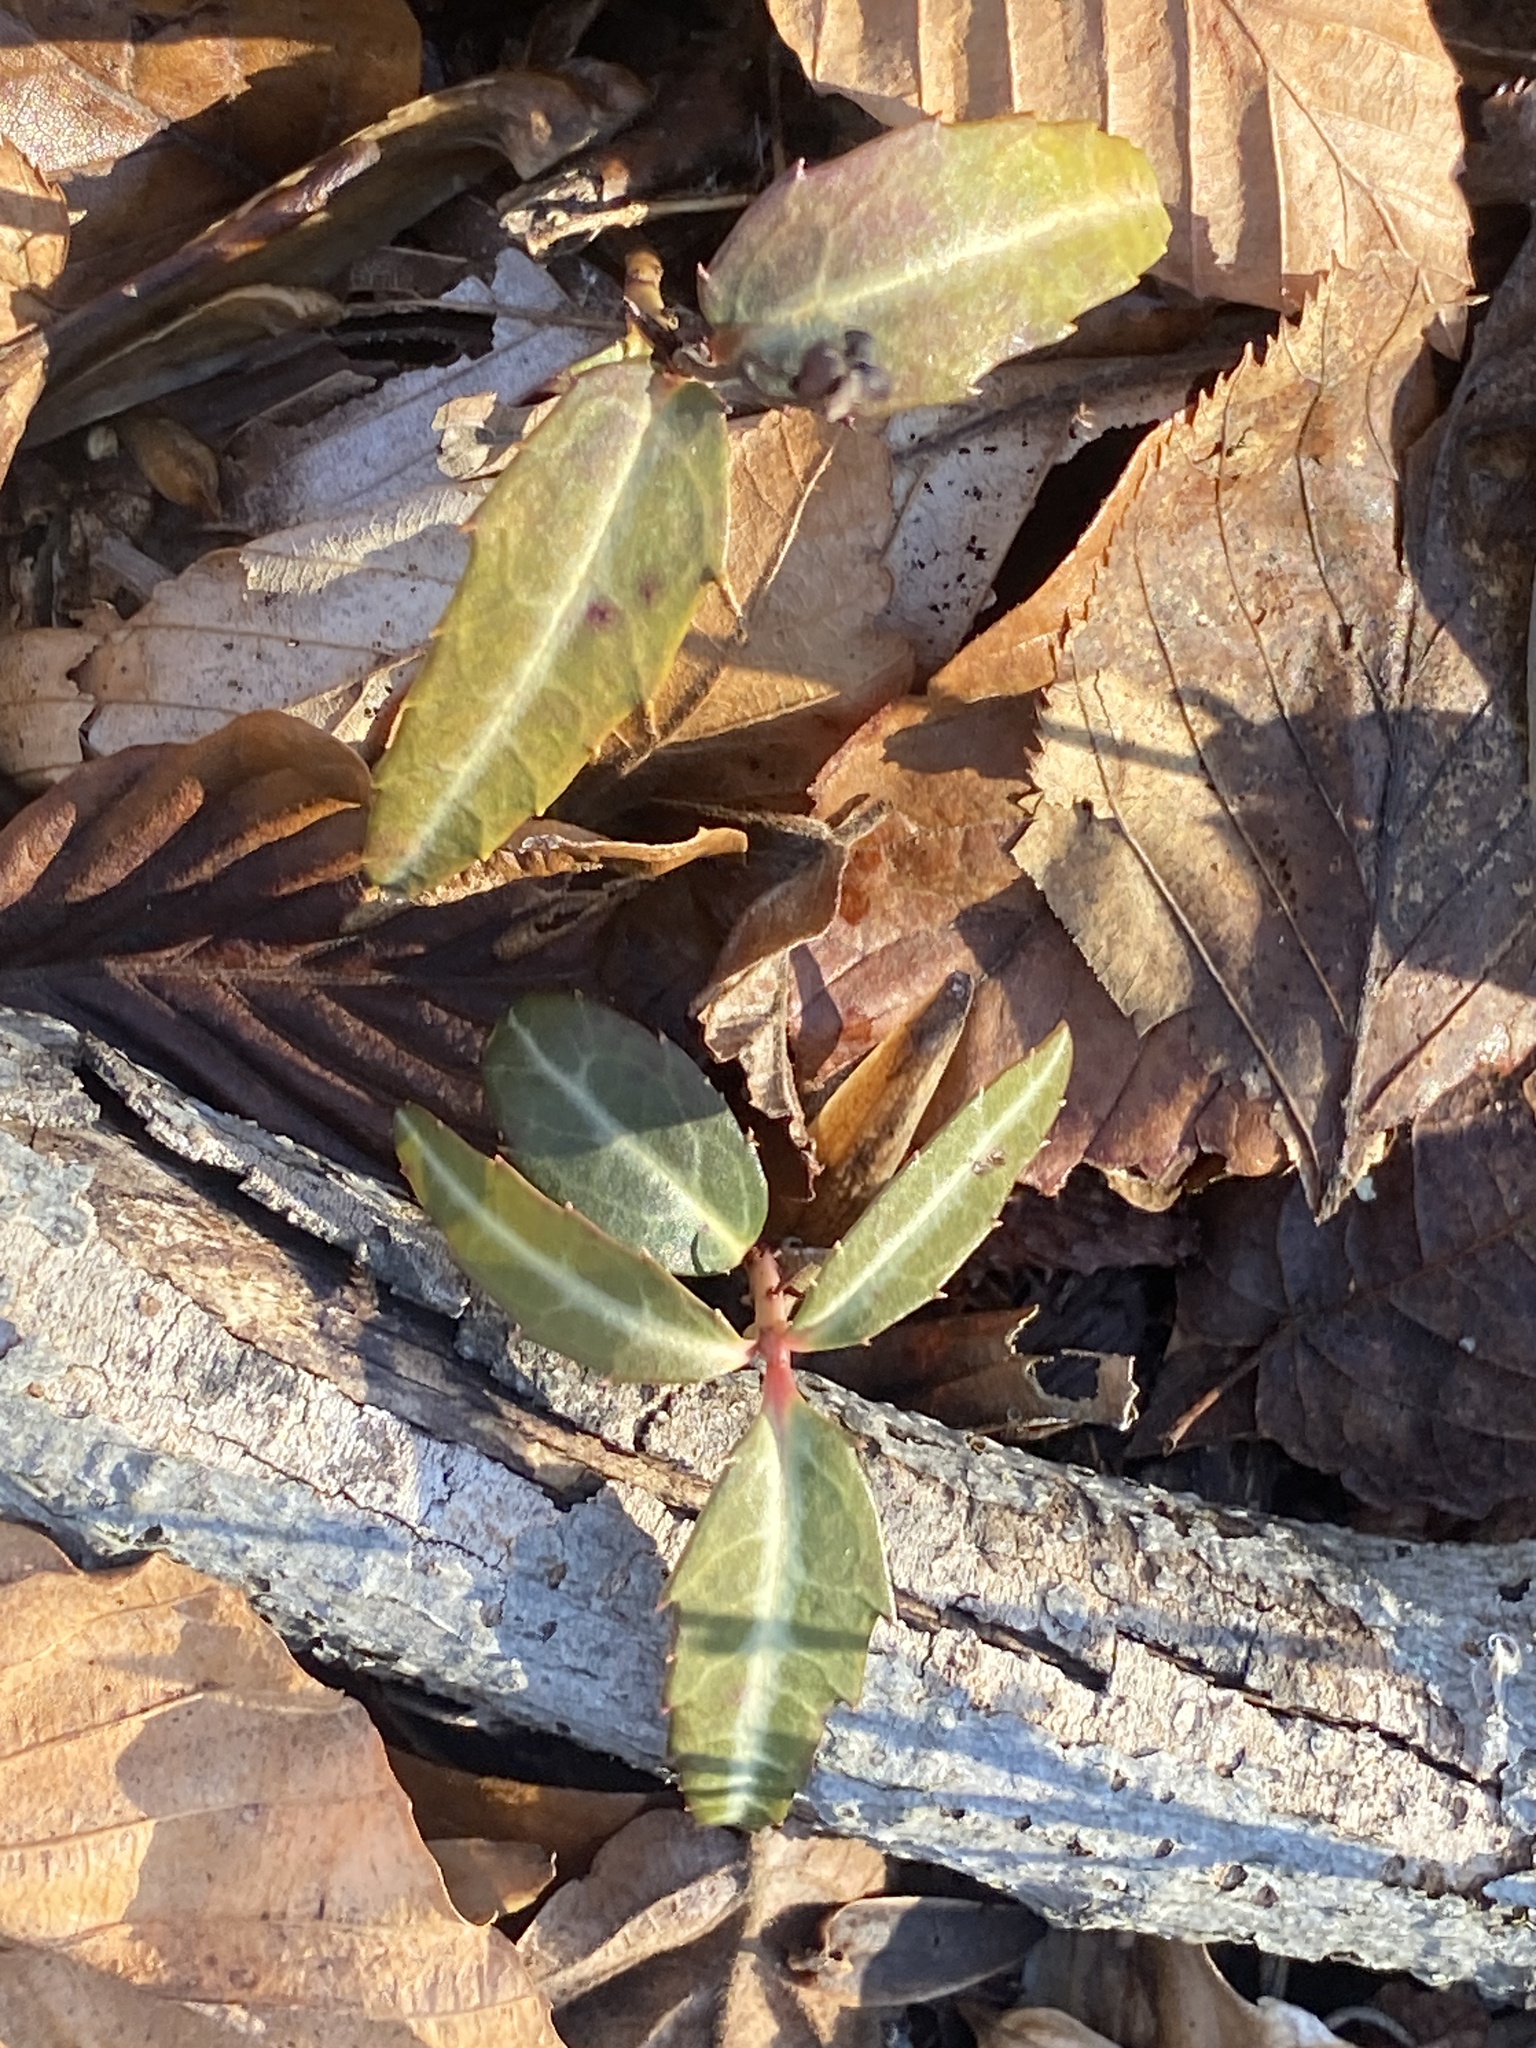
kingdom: Plantae
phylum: Tracheophyta
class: Magnoliopsida
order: Ericales
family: Ericaceae
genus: Chimaphila
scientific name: Chimaphila maculata
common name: Spotted pipsissewa
